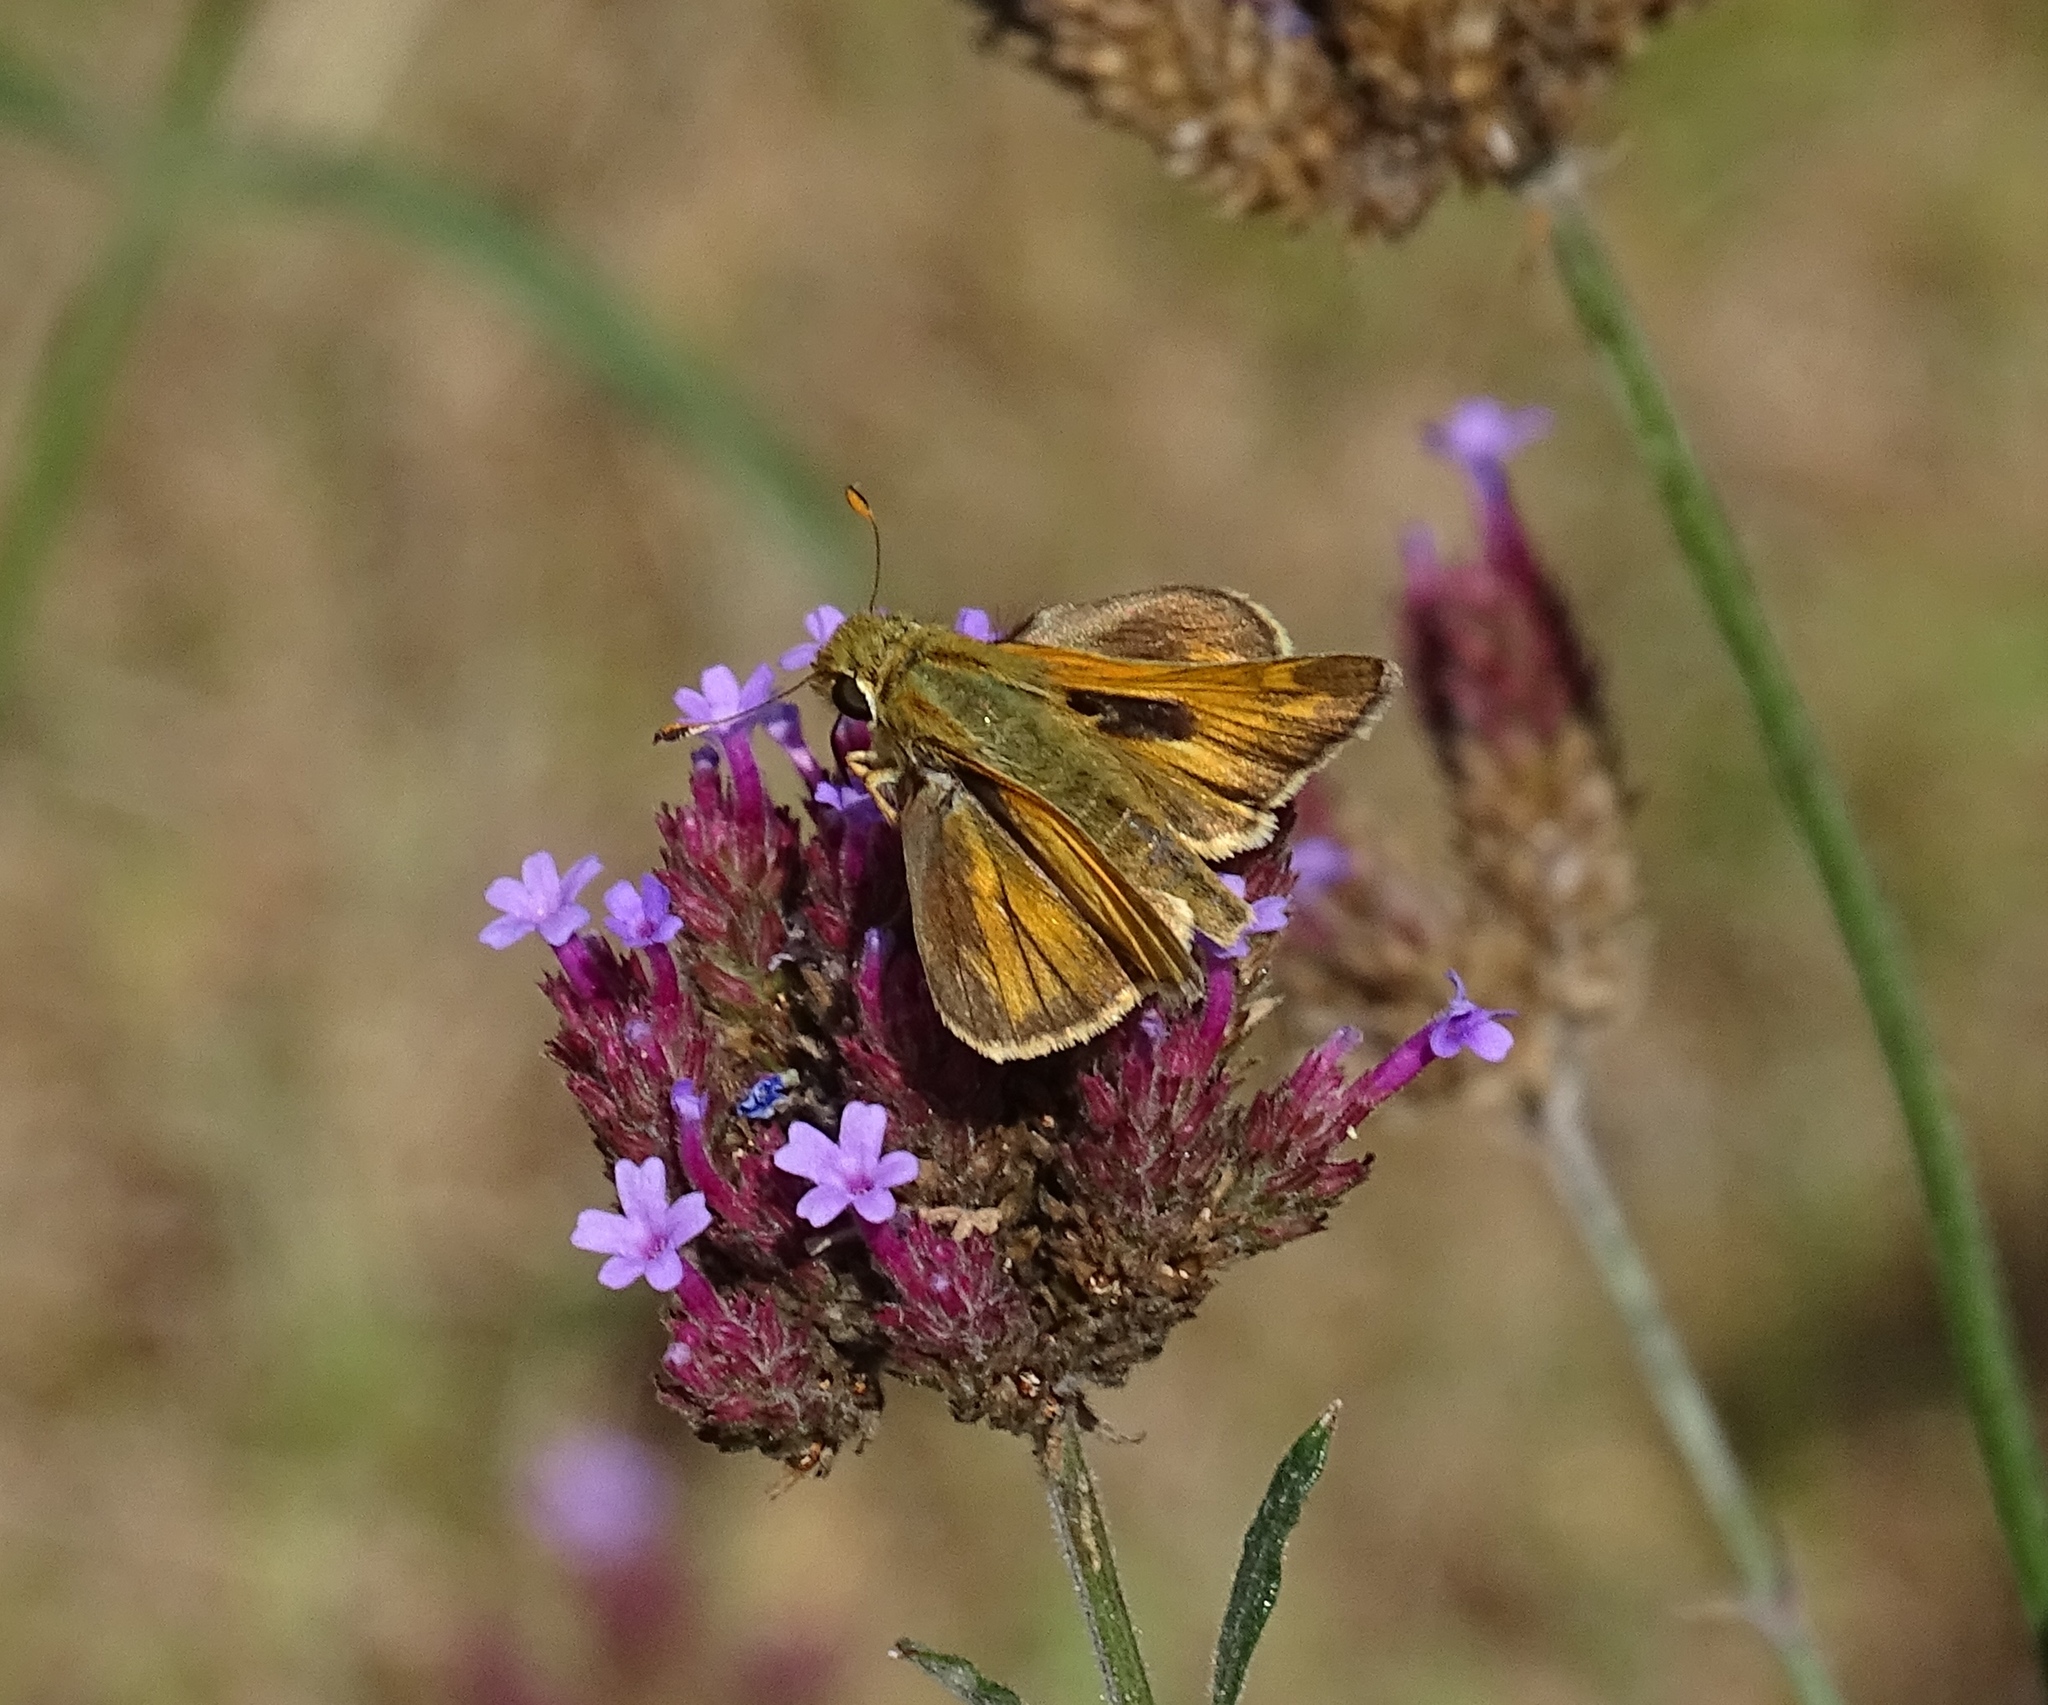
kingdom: Animalia
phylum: Arthropoda
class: Insecta
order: Lepidoptera
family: Hesperiidae
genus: Atalopedes
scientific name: Atalopedes
